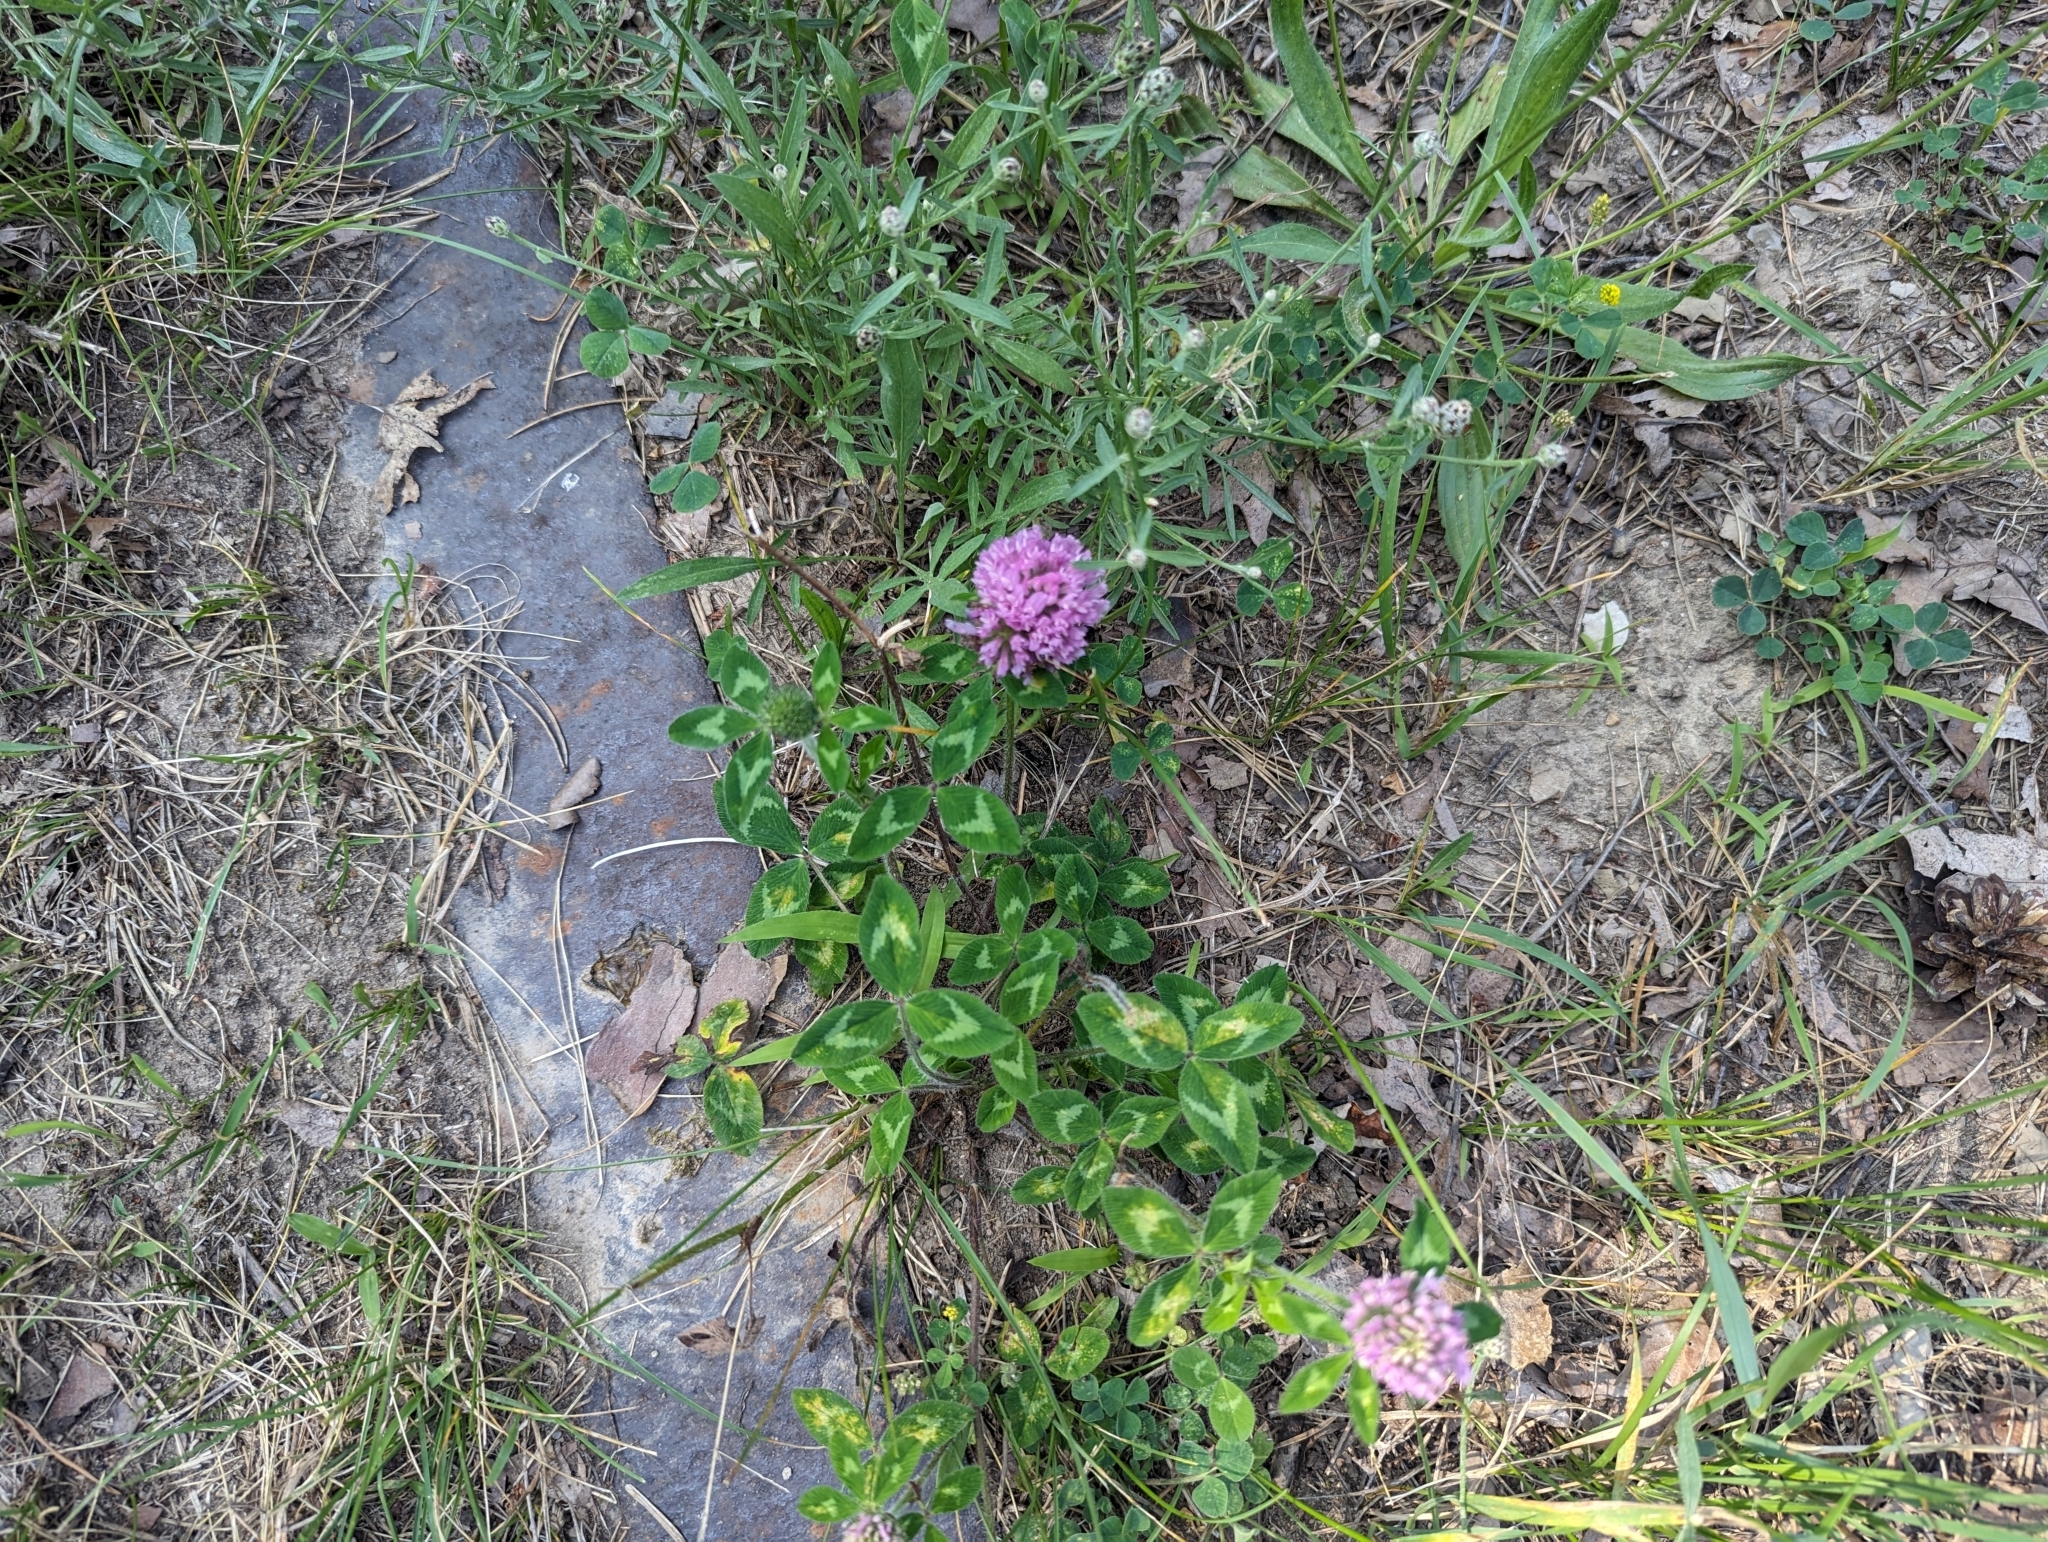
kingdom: Plantae
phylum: Tracheophyta
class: Magnoliopsida
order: Fabales
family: Fabaceae
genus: Trifolium
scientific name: Trifolium pratense
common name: Red clover
